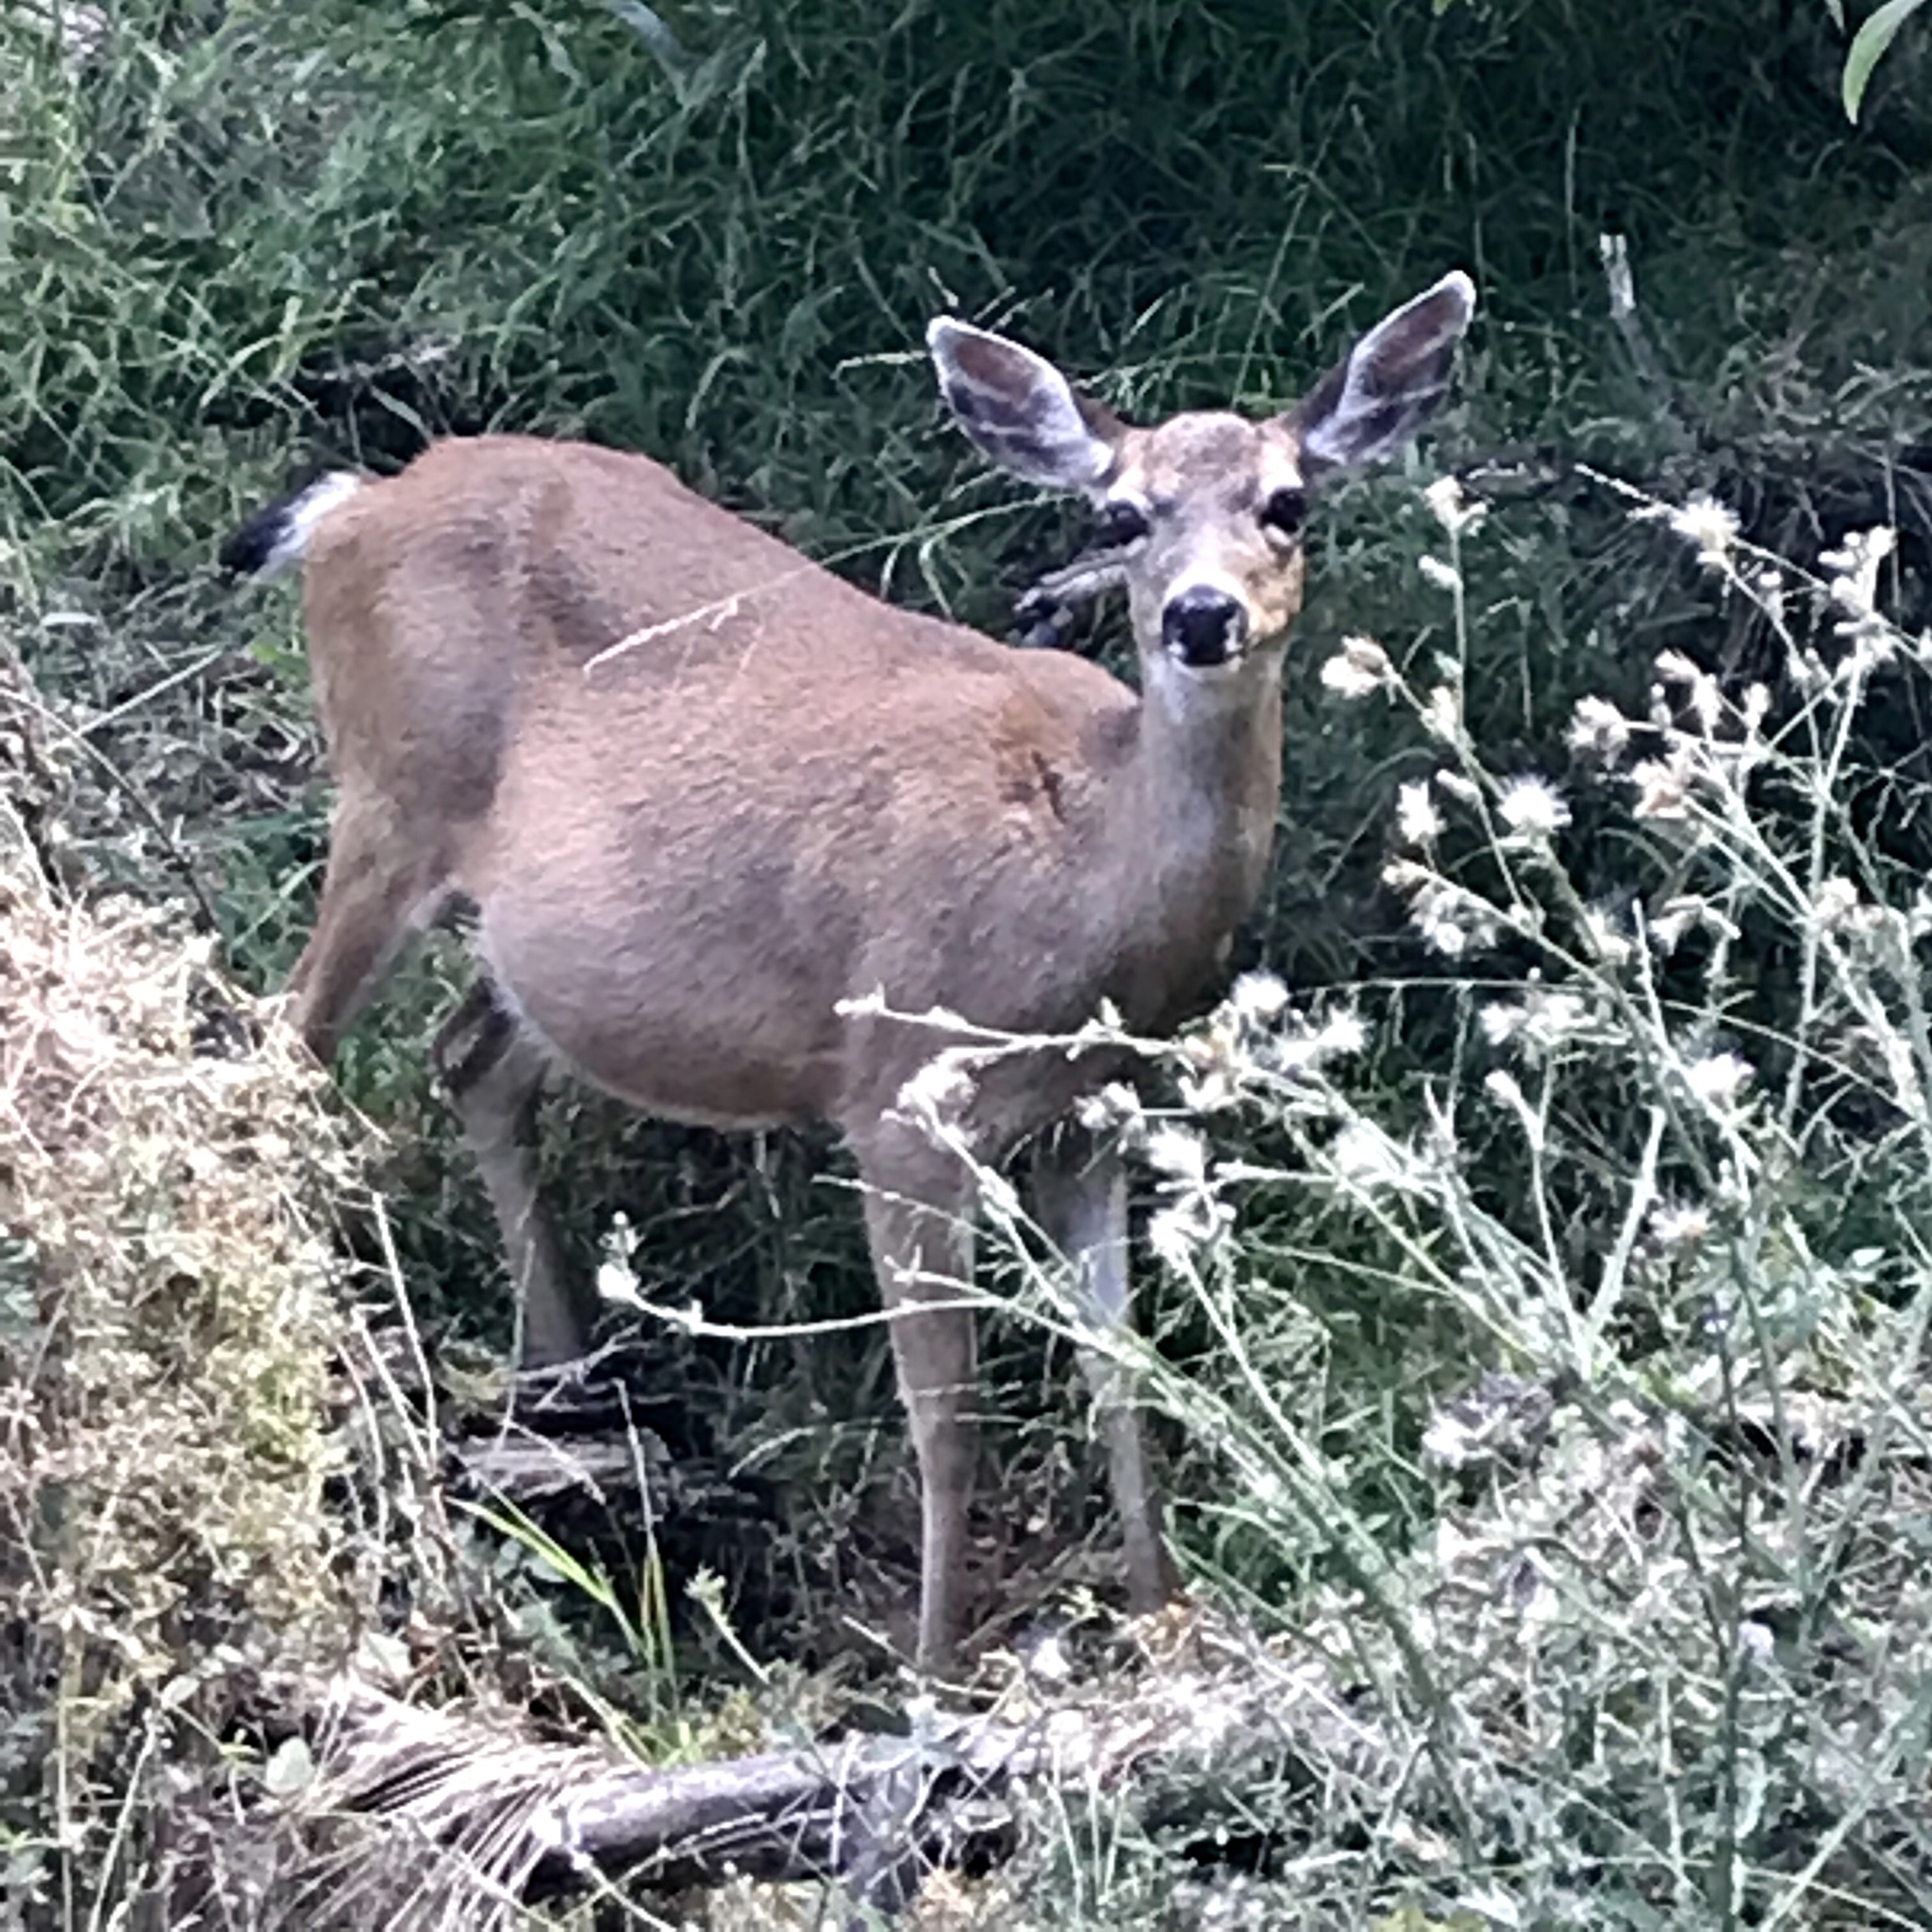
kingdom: Animalia
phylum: Chordata
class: Mammalia
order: Artiodactyla
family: Cervidae
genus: Odocoileus
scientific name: Odocoileus hemionus
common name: Mule deer
